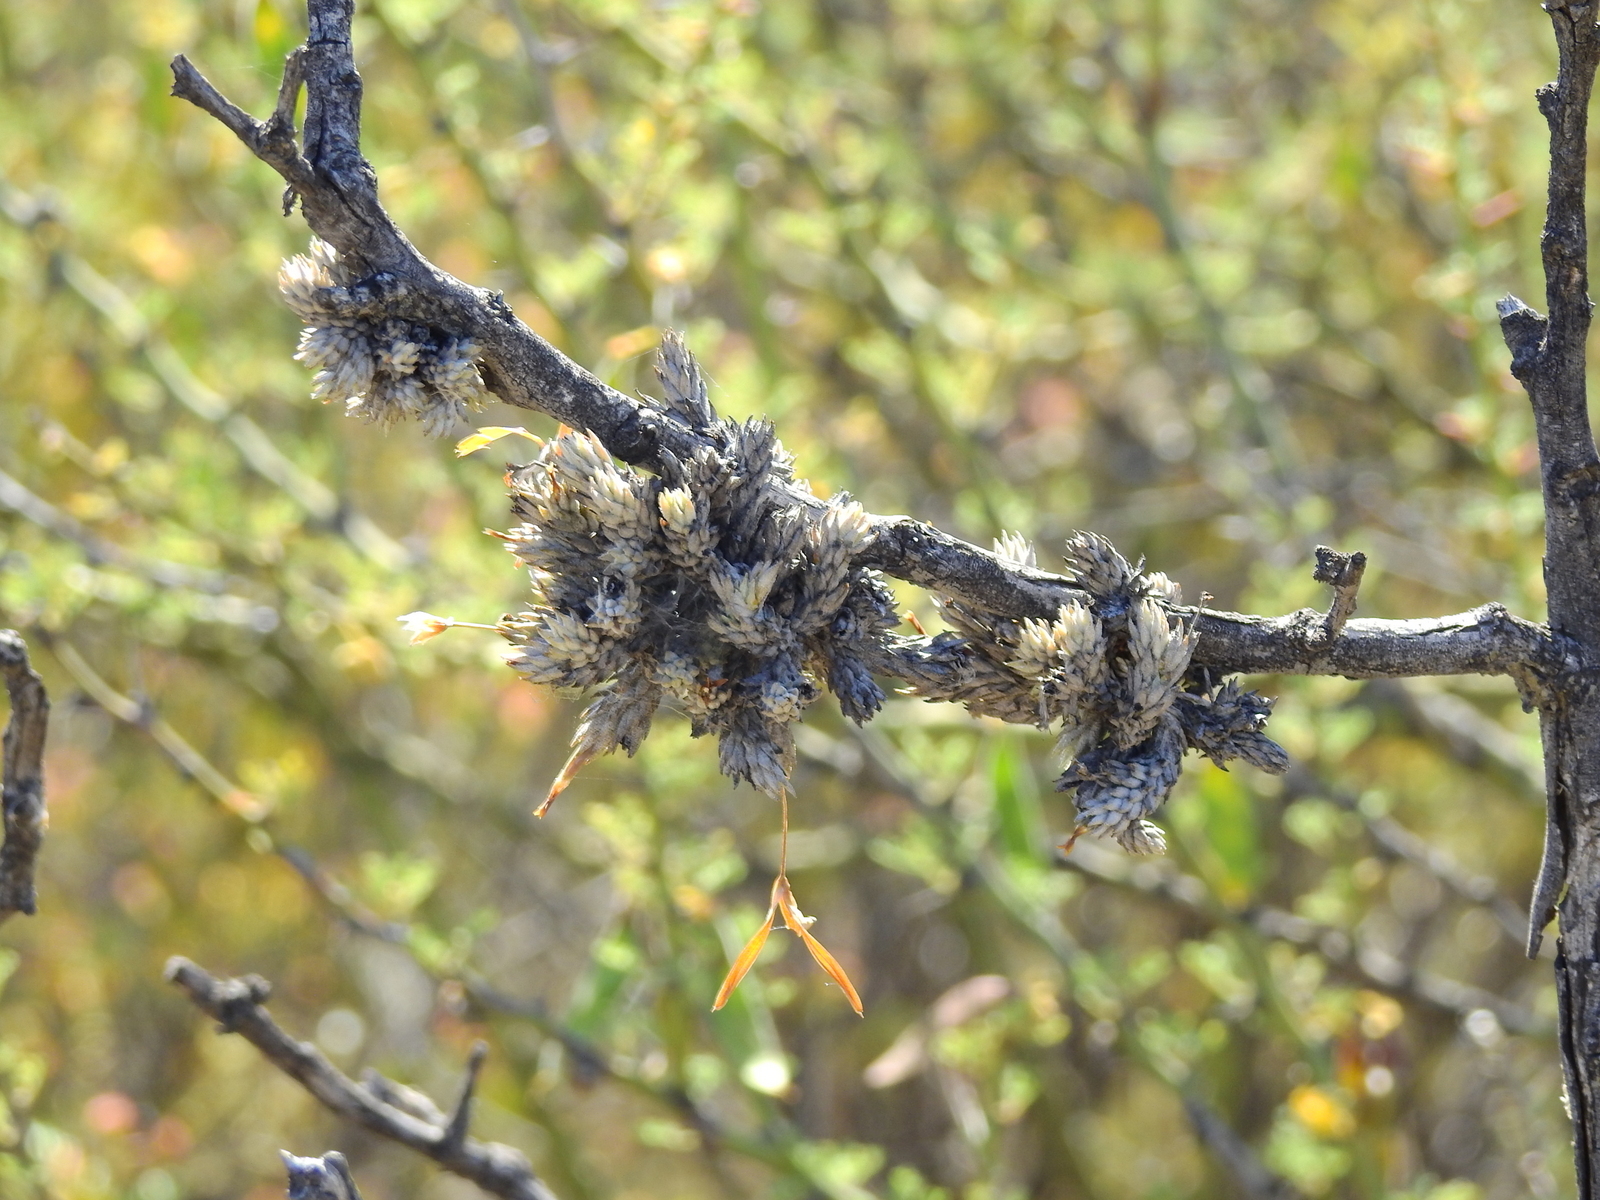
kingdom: Plantae
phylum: Tracheophyta
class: Liliopsida
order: Poales
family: Bromeliaceae
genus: Tillandsia
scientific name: Tillandsia pedicellata
